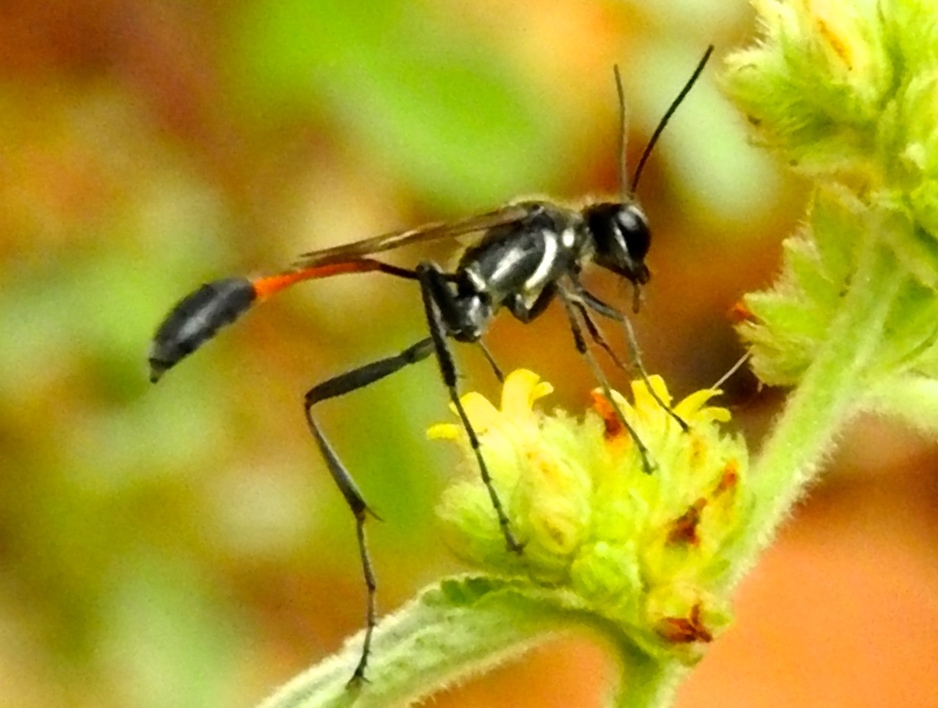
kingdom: Animalia
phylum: Arthropoda
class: Insecta
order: Hymenoptera
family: Sphecidae
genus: Ammophila
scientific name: Ammophila
